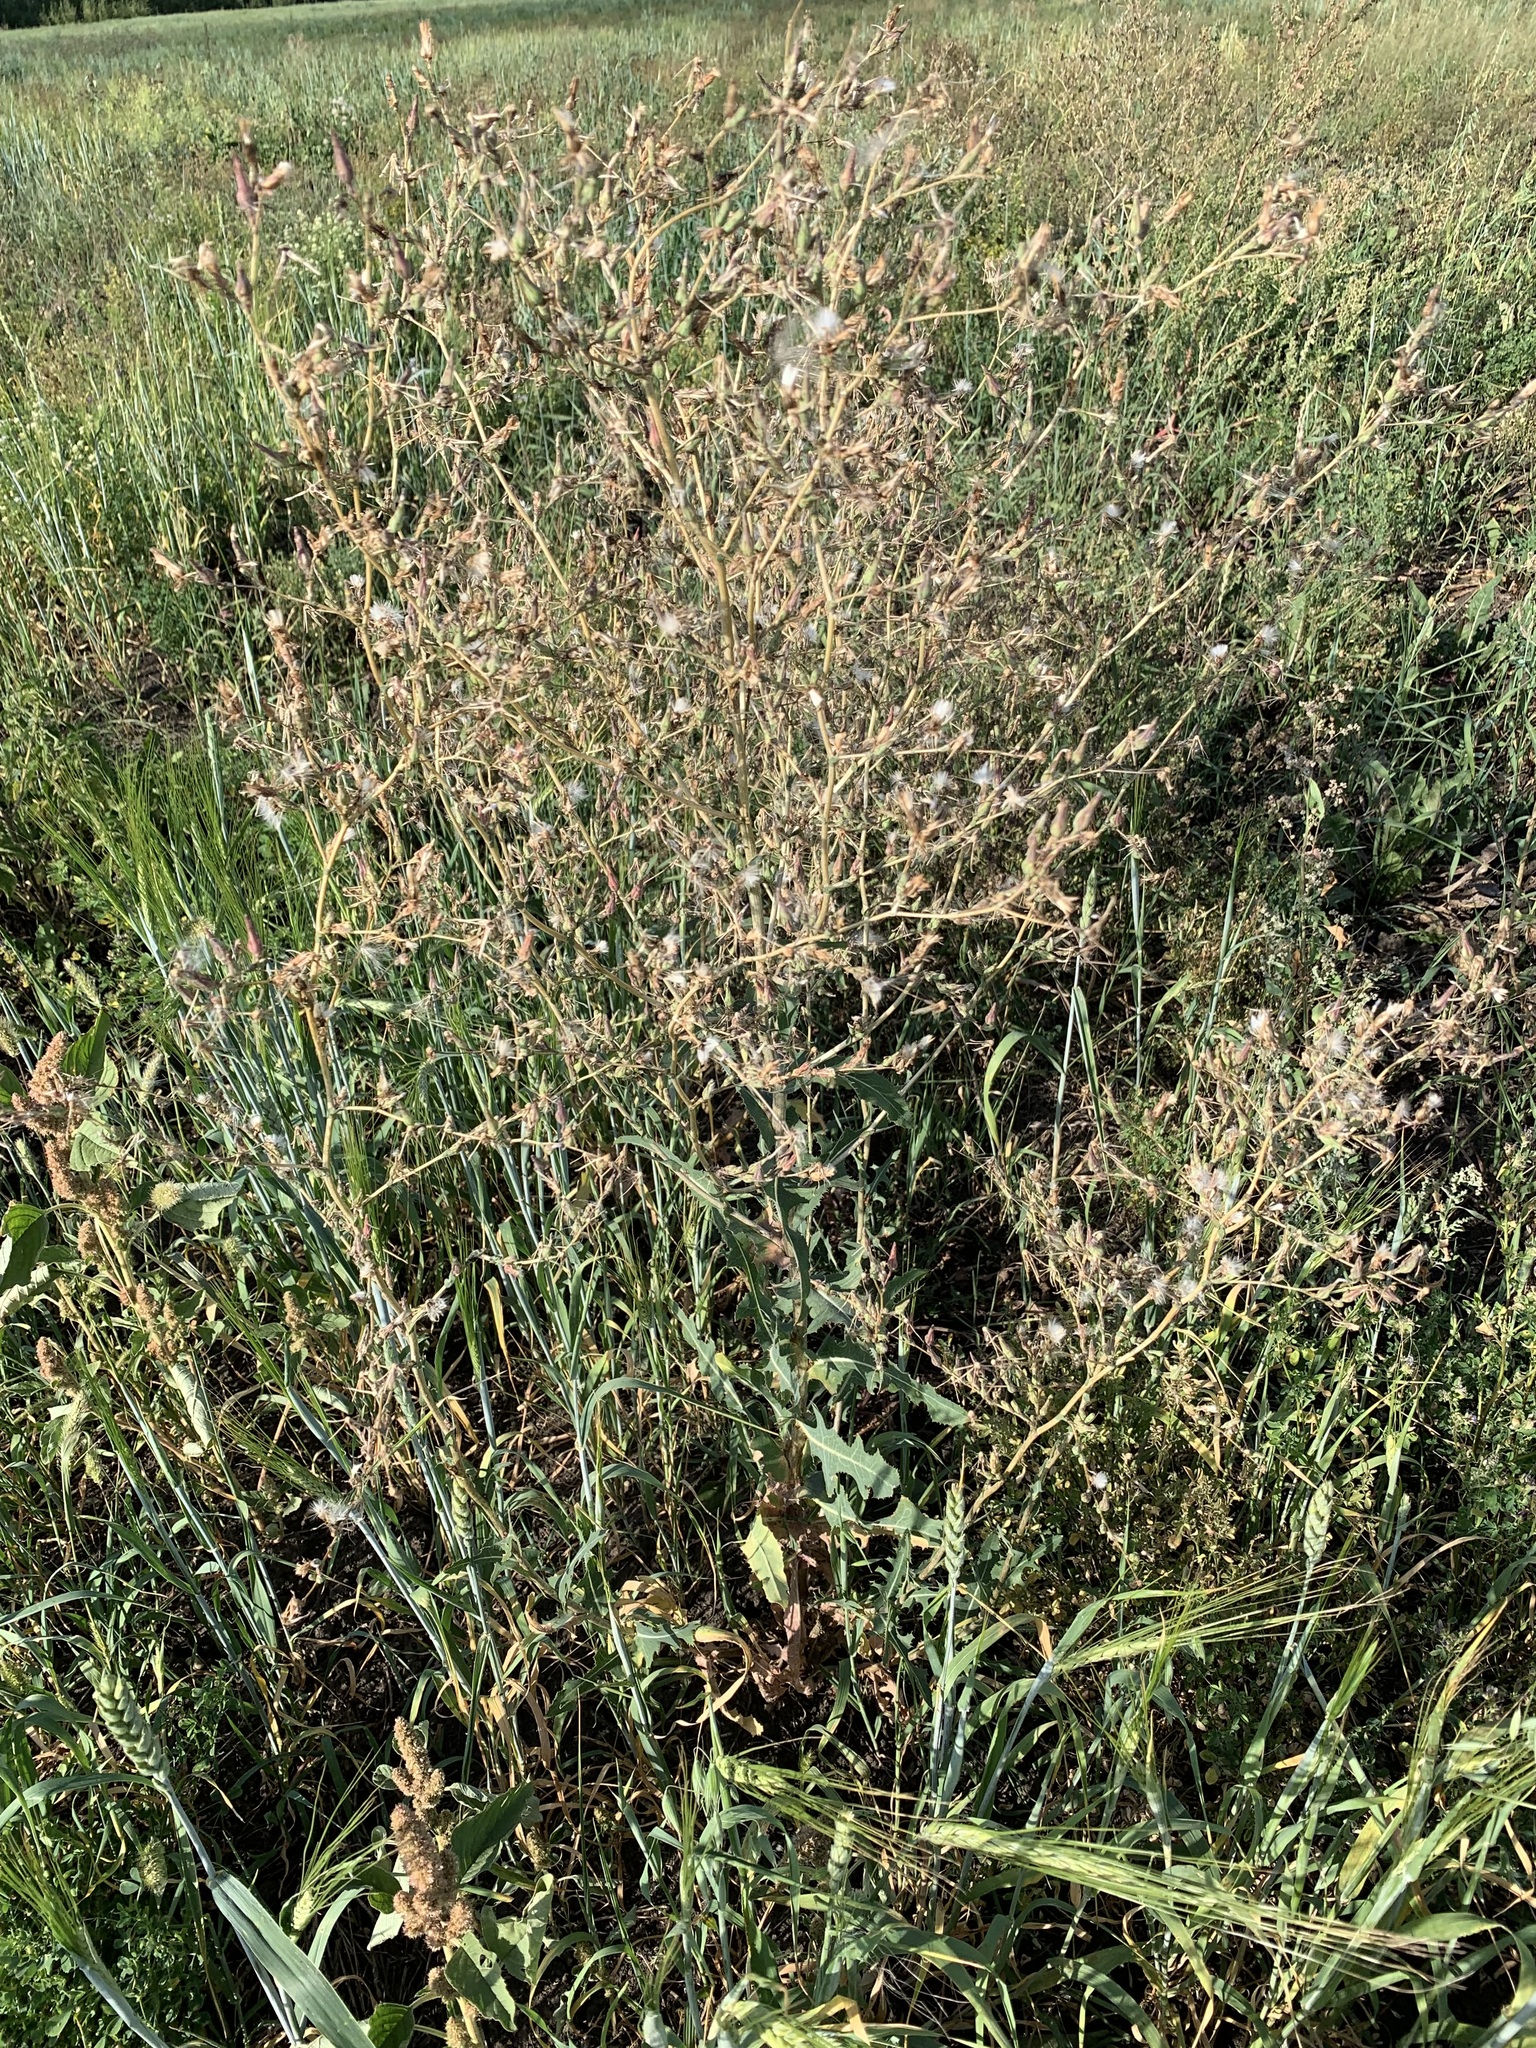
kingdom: Plantae
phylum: Tracheophyta
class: Magnoliopsida
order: Asterales
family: Asteraceae
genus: Lactuca
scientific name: Lactuca serriola
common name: Prickly lettuce
